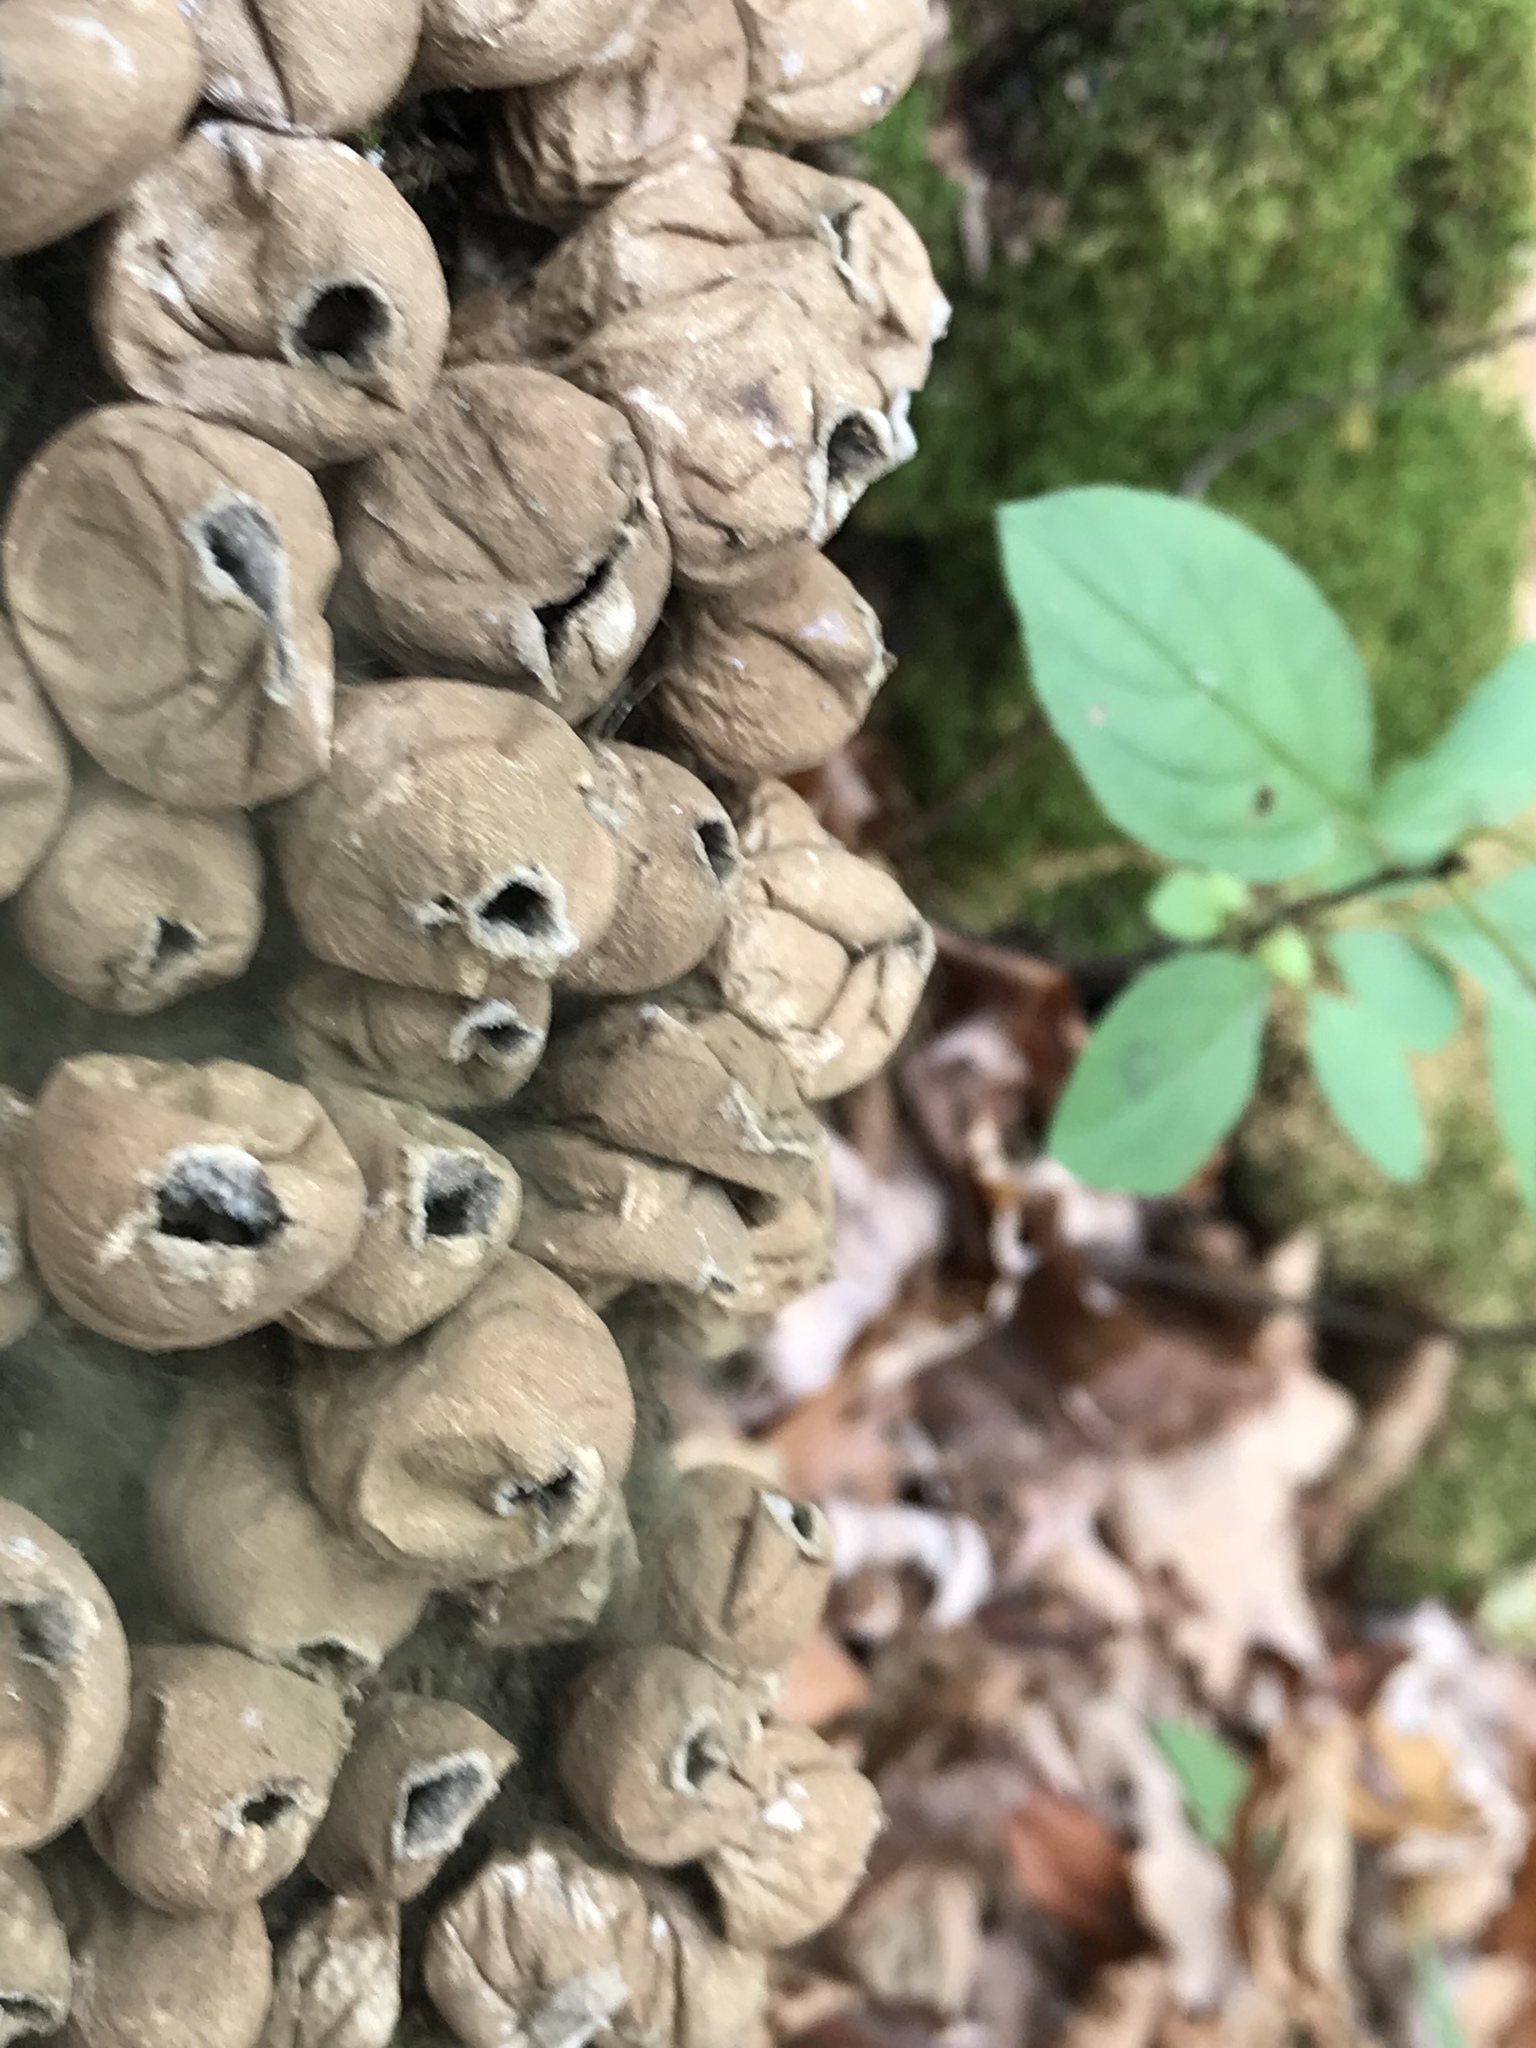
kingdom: Fungi
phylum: Basidiomycota
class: Agaricomycetes
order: Agaricales
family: Lycoperdaceae
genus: Apioperdon
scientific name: Apioperdon pyriforme
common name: Pear-shaped puffball
